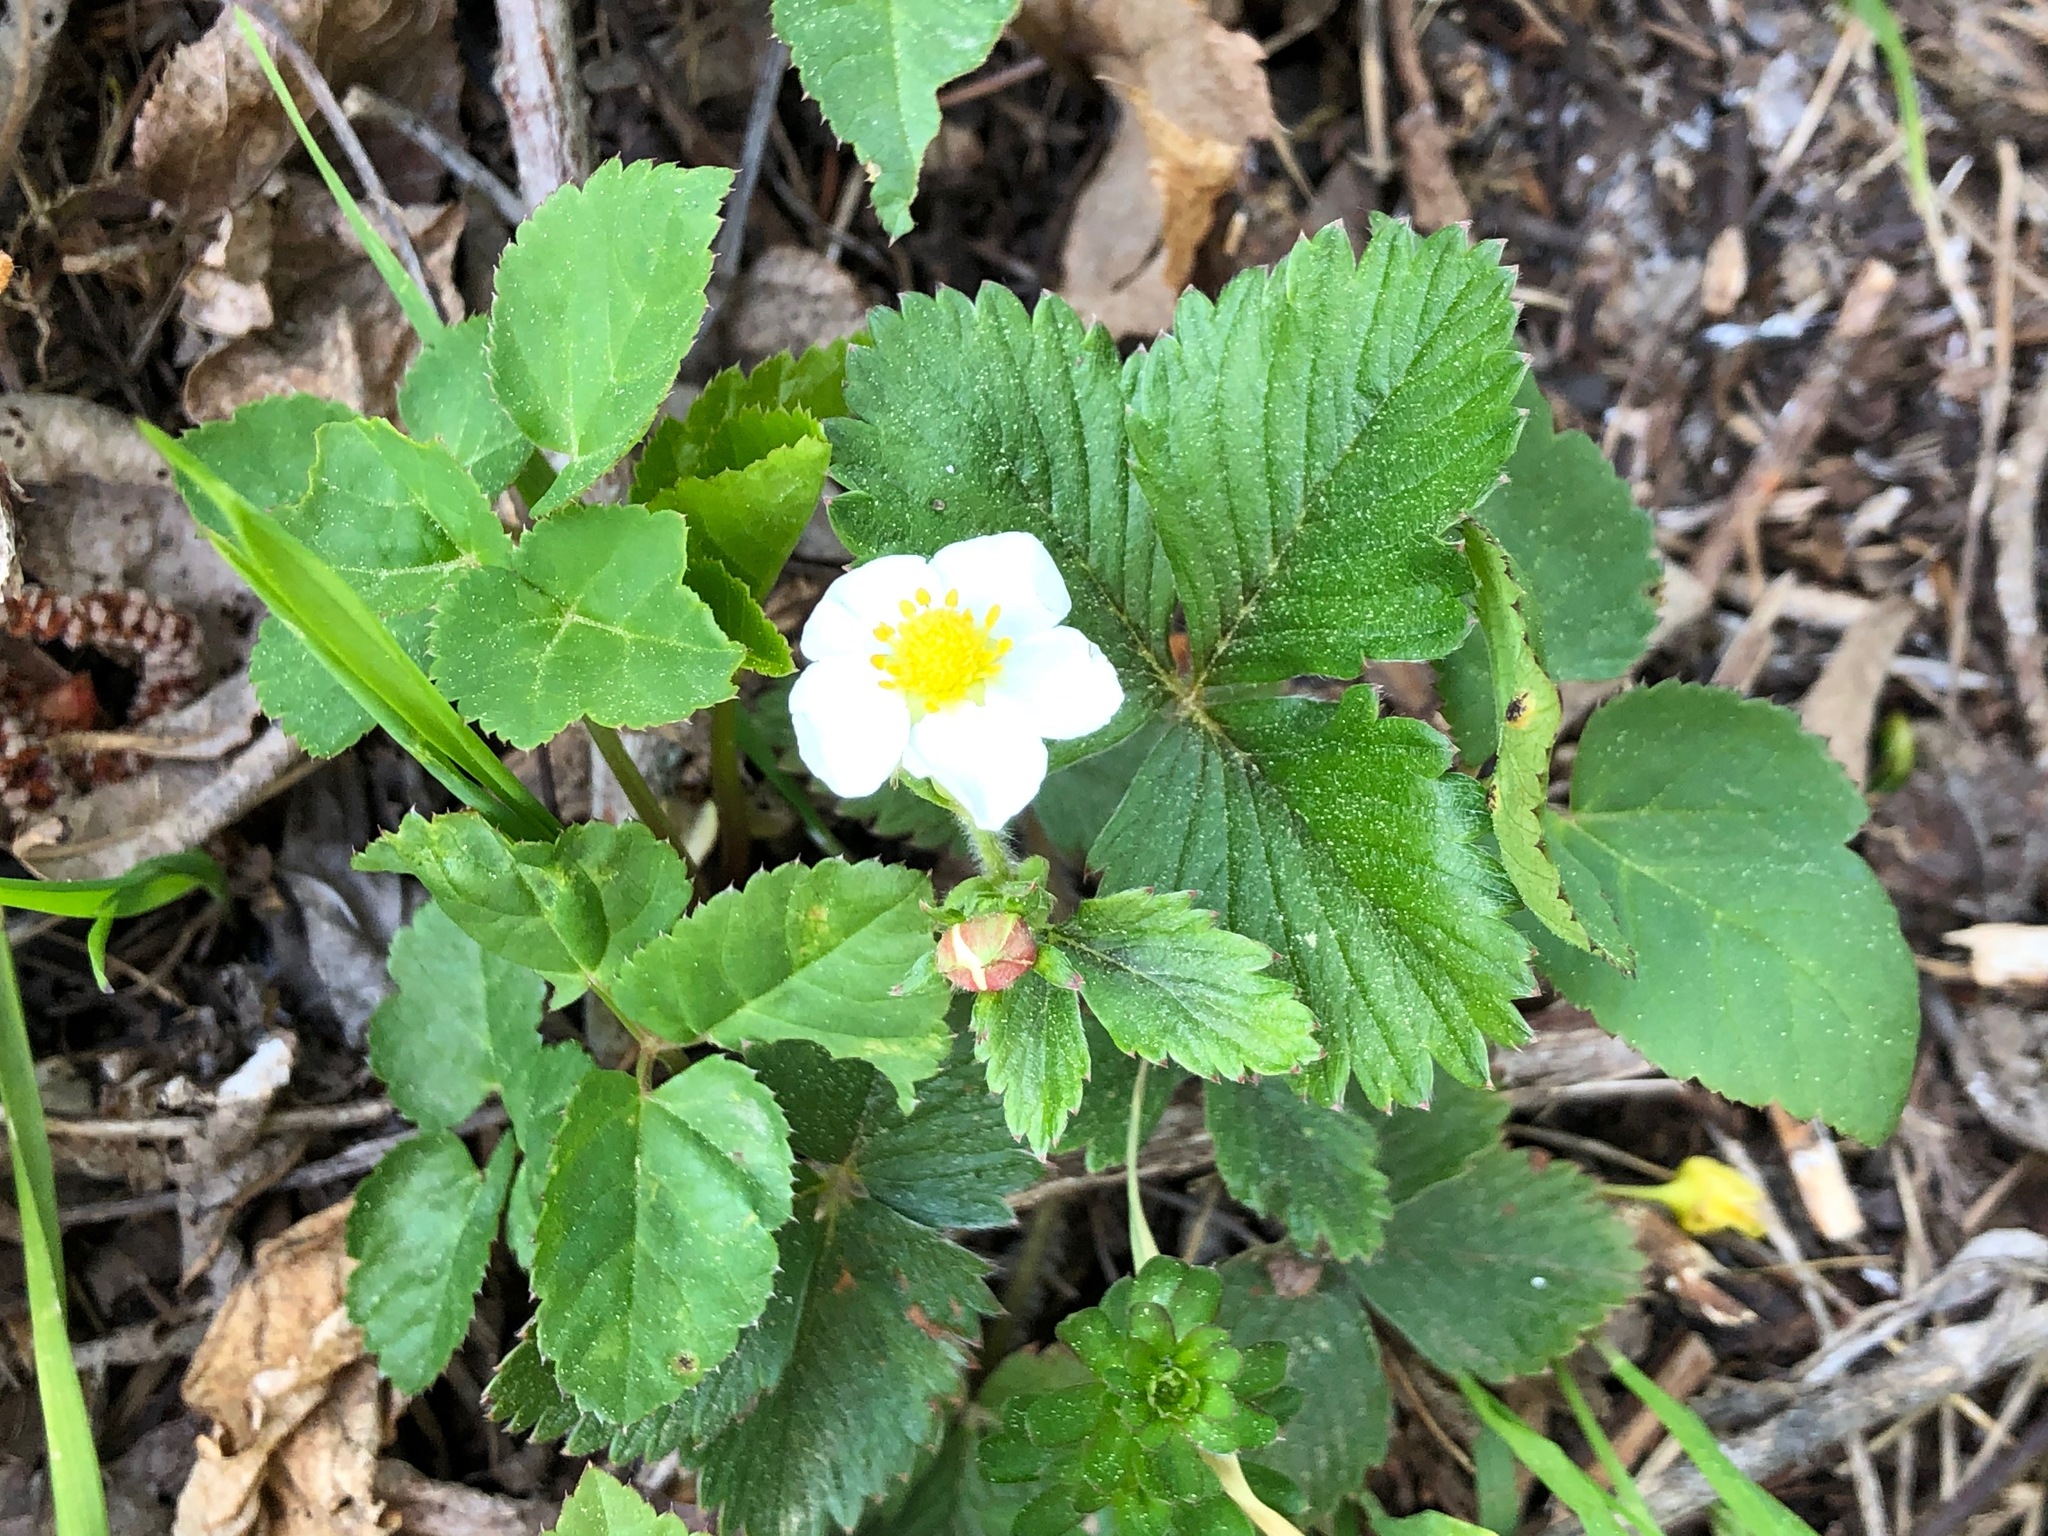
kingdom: Plantae
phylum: Tracheophyta
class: Magnoliopsida
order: Rosales
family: Rosaceae
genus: Fragaria
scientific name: Fragaria vesca
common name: Wild strawberry
